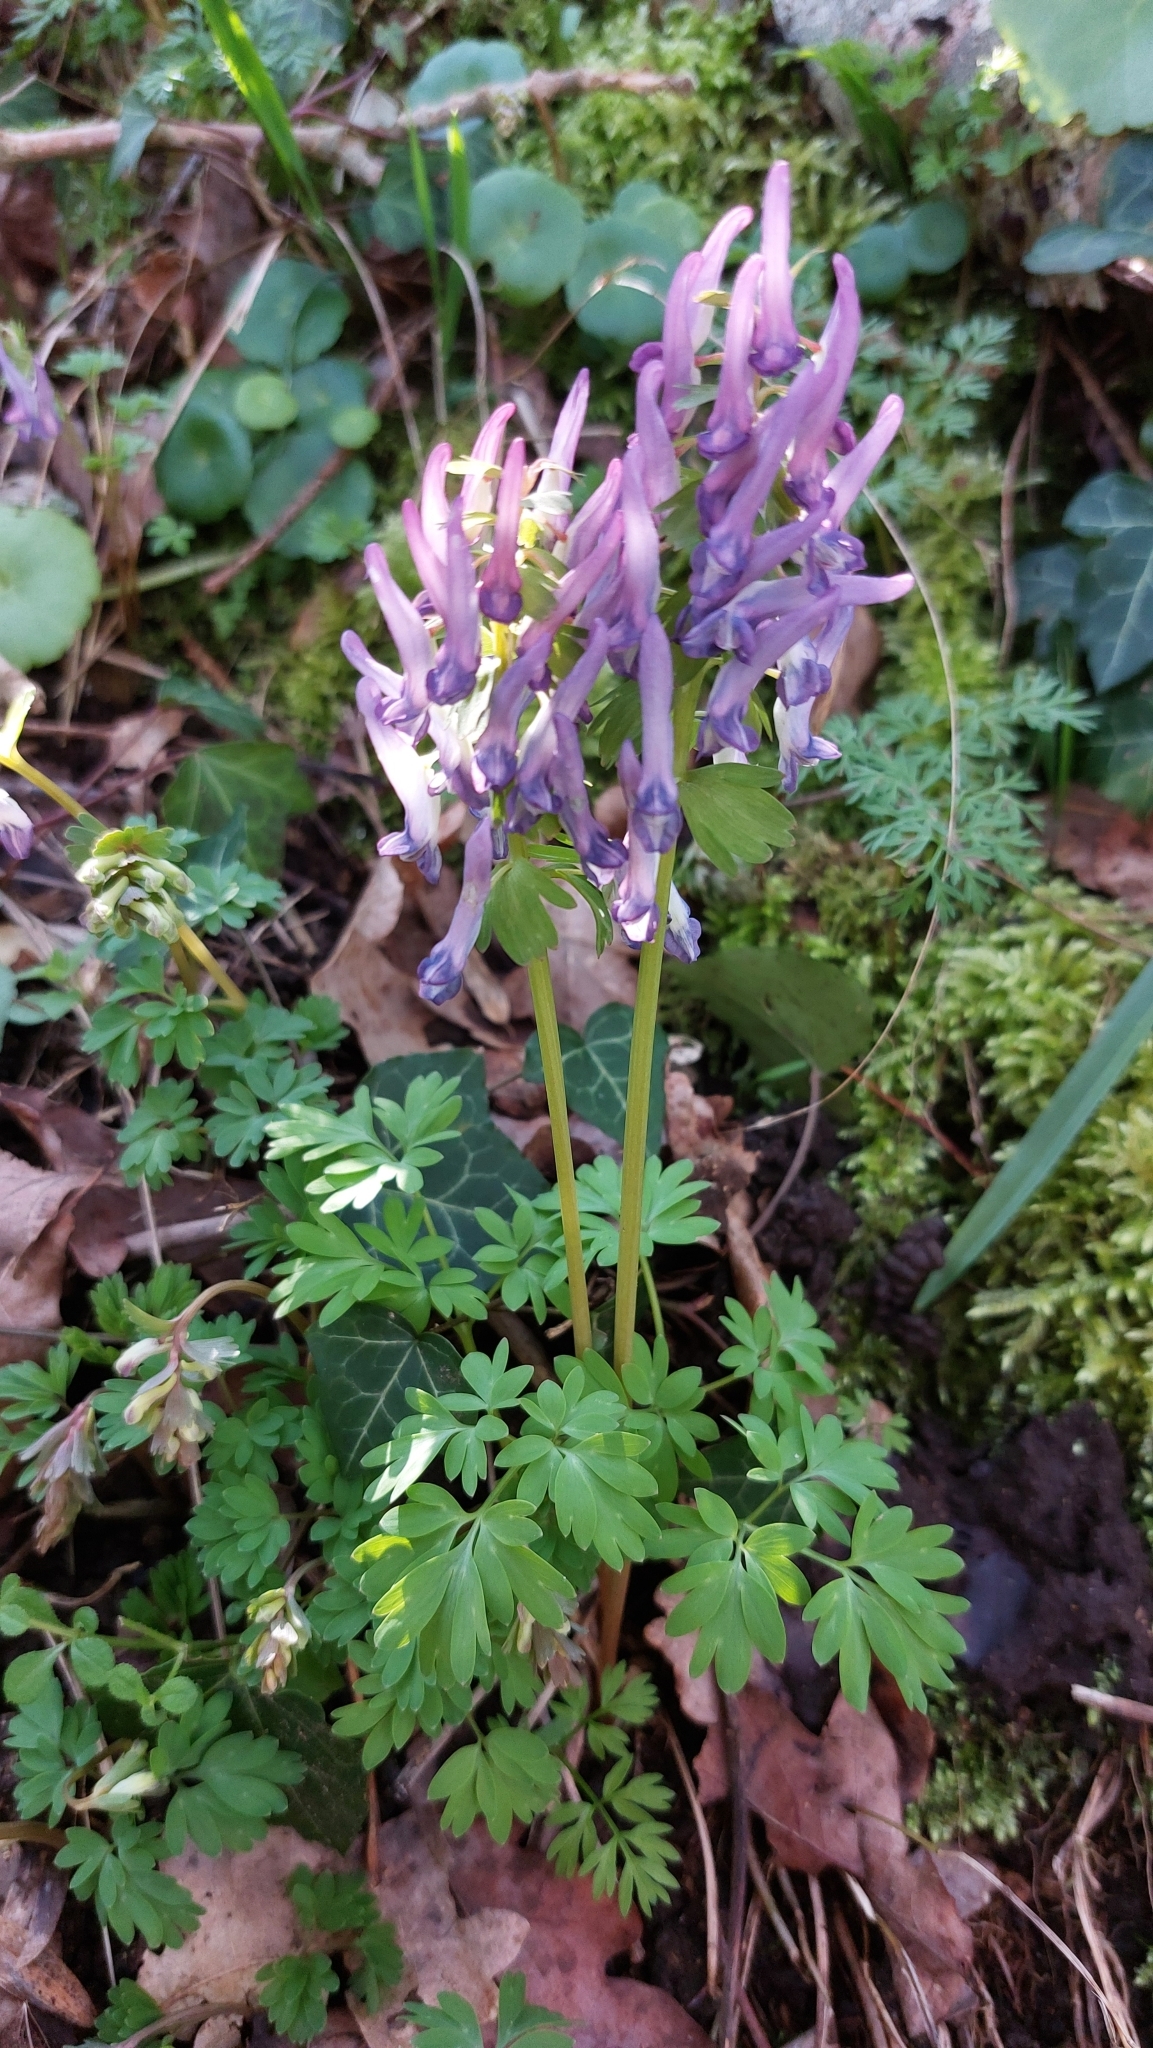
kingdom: Plantae
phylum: Tracheophyta
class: Magnoliopsida
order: Ranunculales
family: Papaveraceae
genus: Corydalis
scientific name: Corydalis solida
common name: Bird-in-a-bush
